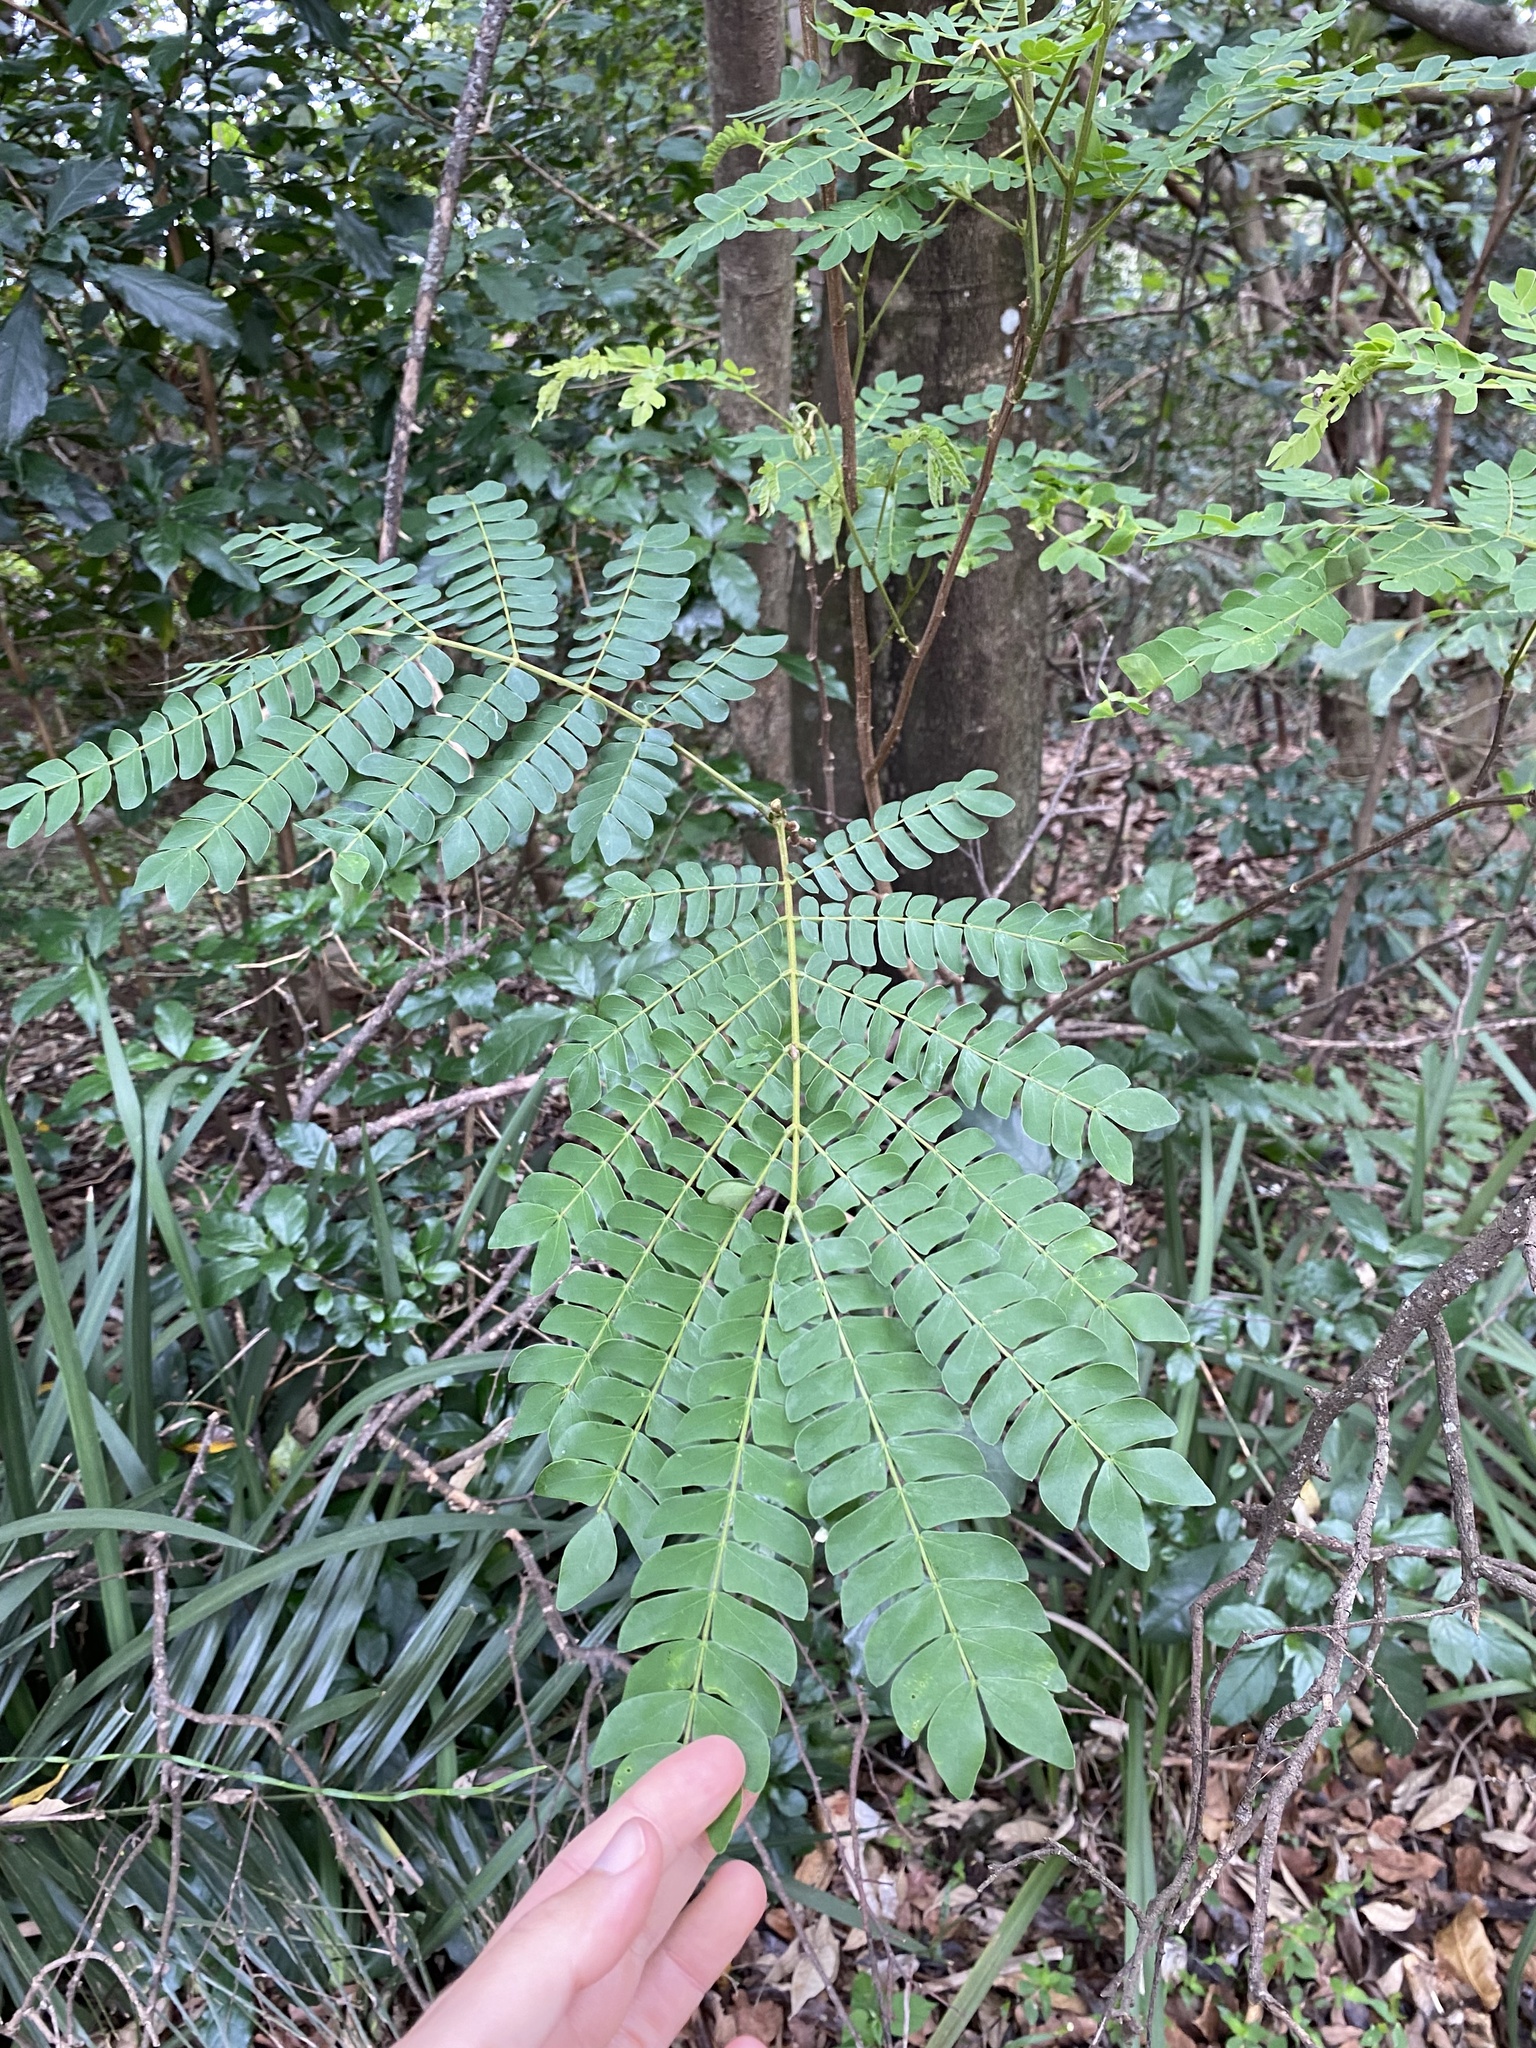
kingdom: Plantae
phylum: Tracheophyta
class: Magnoliopsida
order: Fabales
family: Fabaceae
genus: Albizia
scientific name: Albizia adianthifolia
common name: West african albizia
